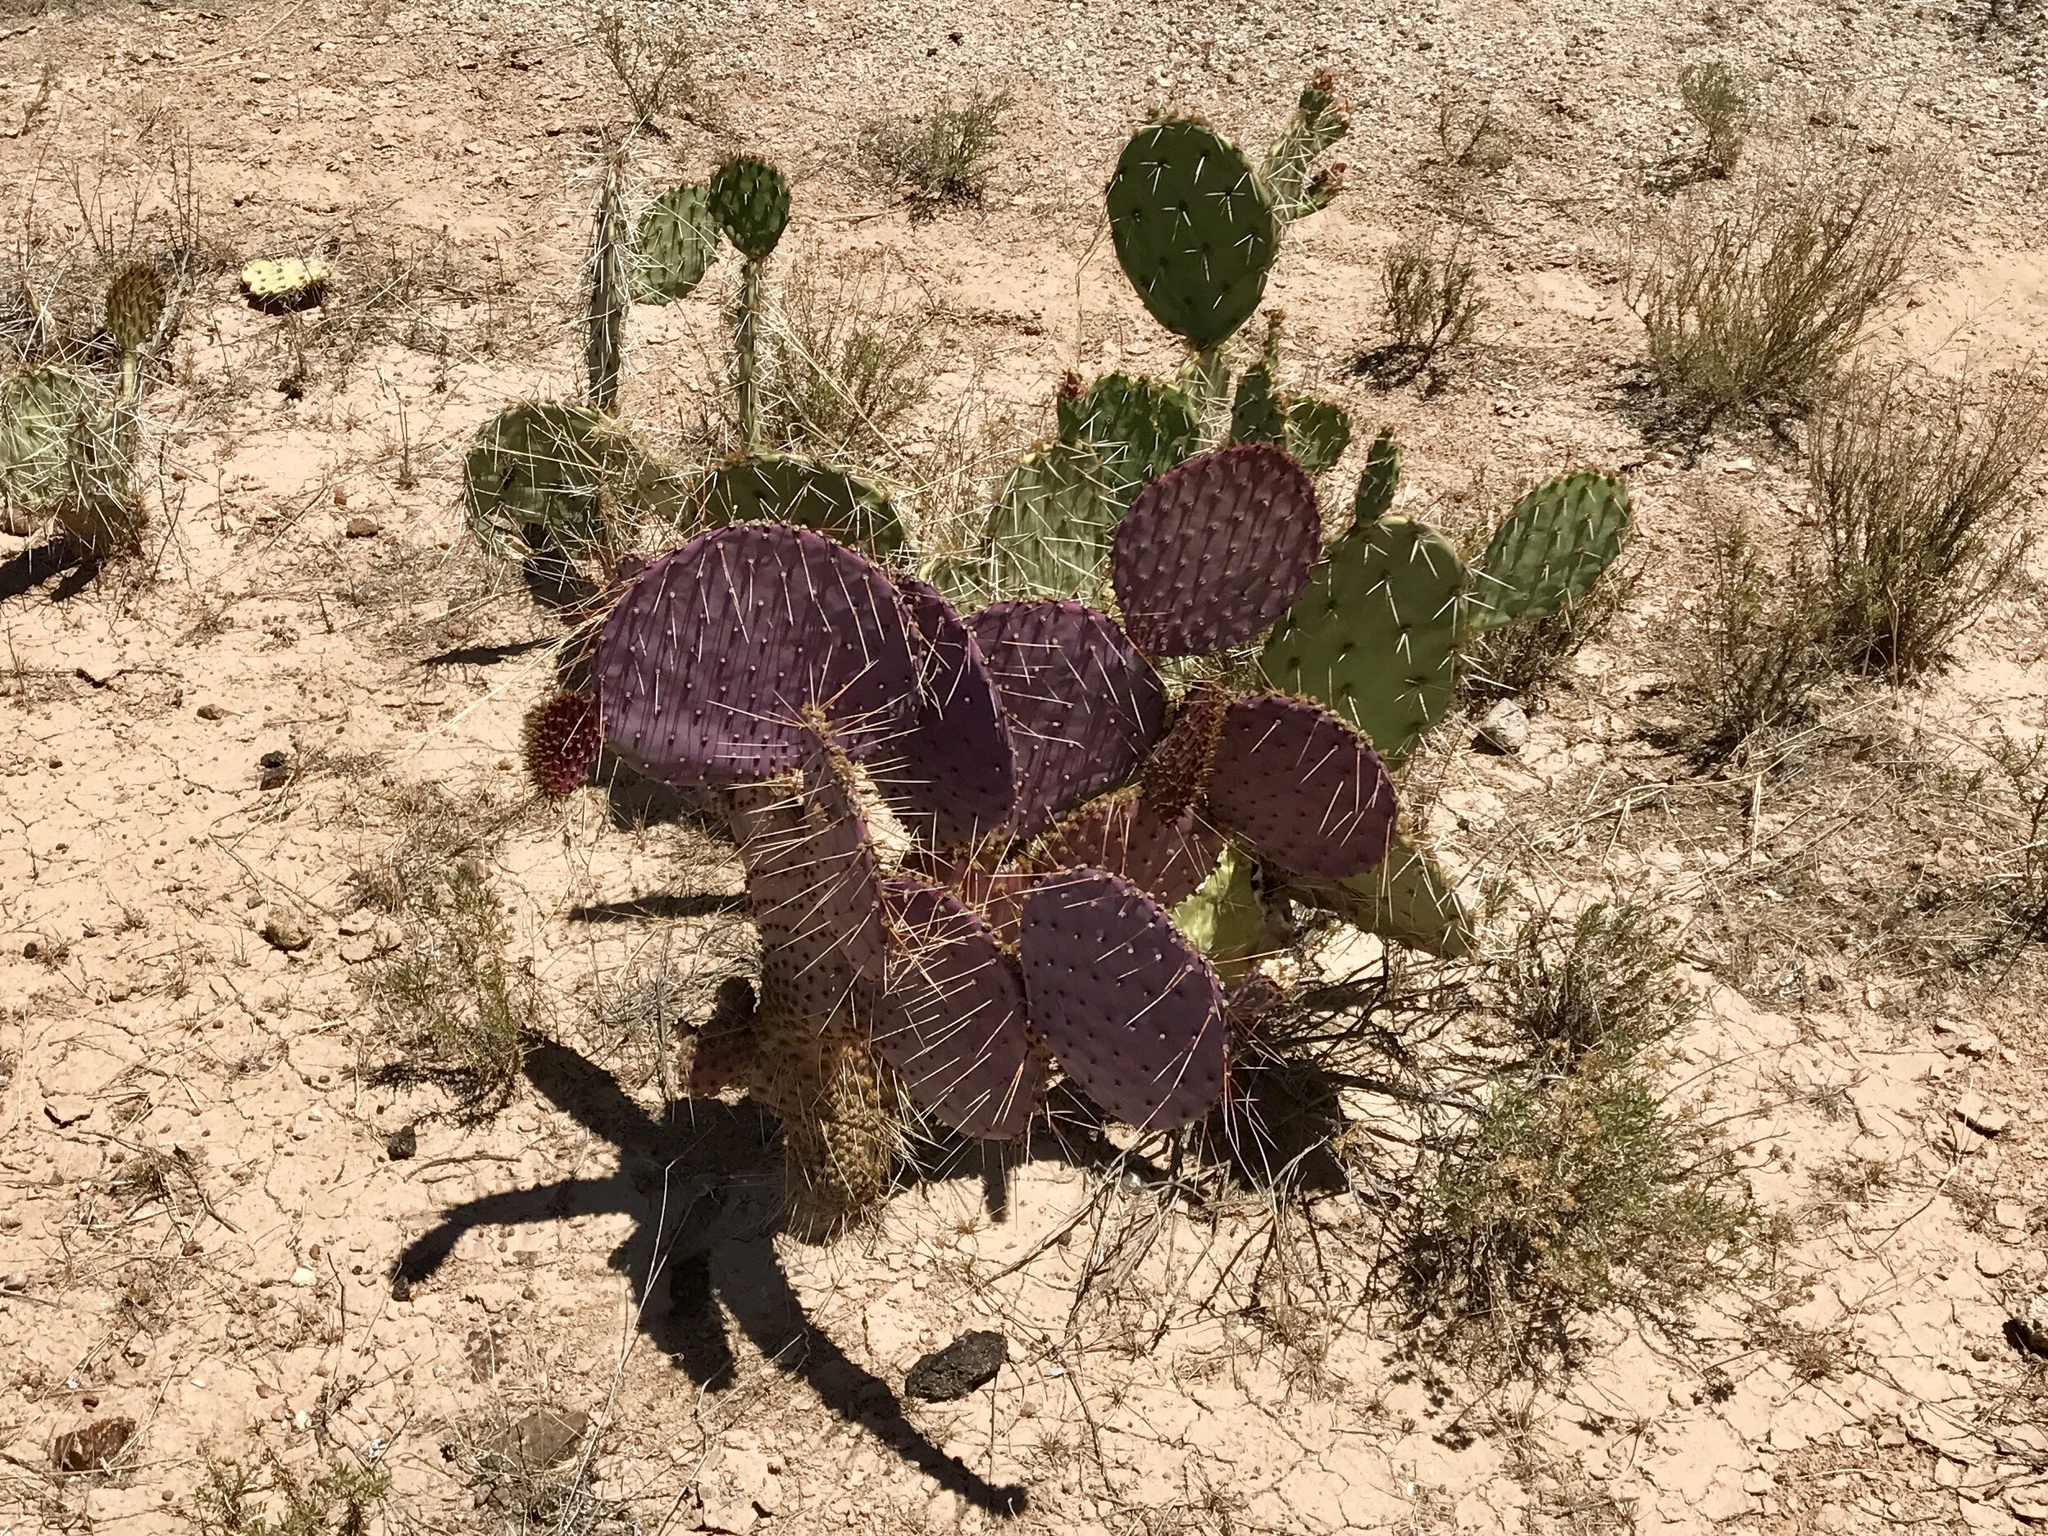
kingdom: Plantae
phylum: Tracheophyta
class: Magnoliopsida
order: Caryophyllales
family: Cactaceae
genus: Opuntia
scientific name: Opuntia gosseliniana
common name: Violet prickly-pear
